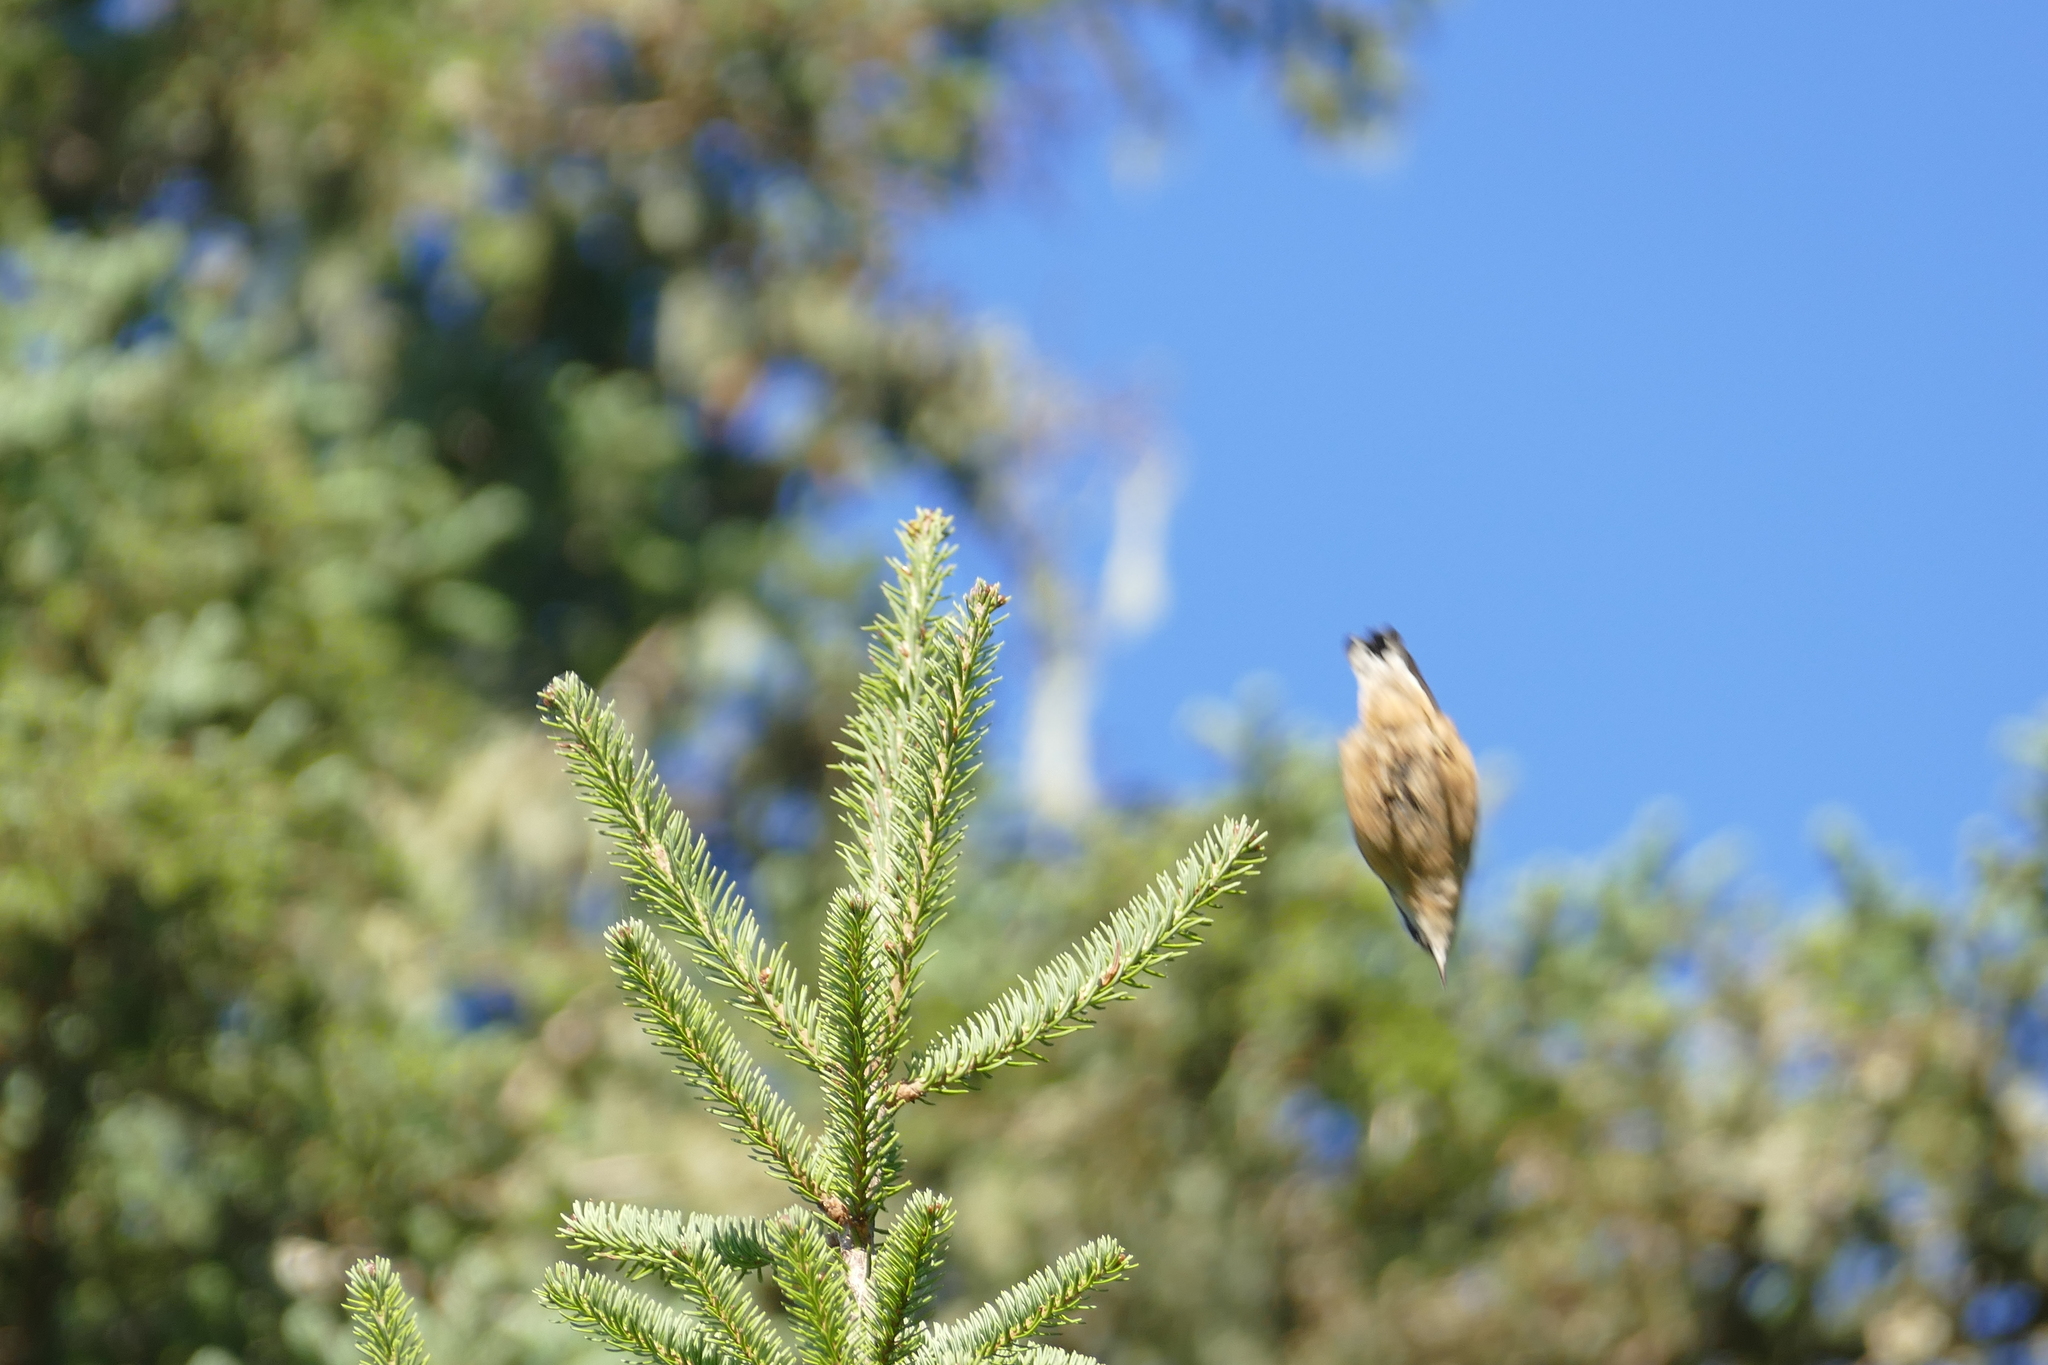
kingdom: Animalia
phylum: Chordata
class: Aves
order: Passeriformes
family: Sittidae
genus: Sitta
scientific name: Sitta canadensis
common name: Red-breasted nuthatch
